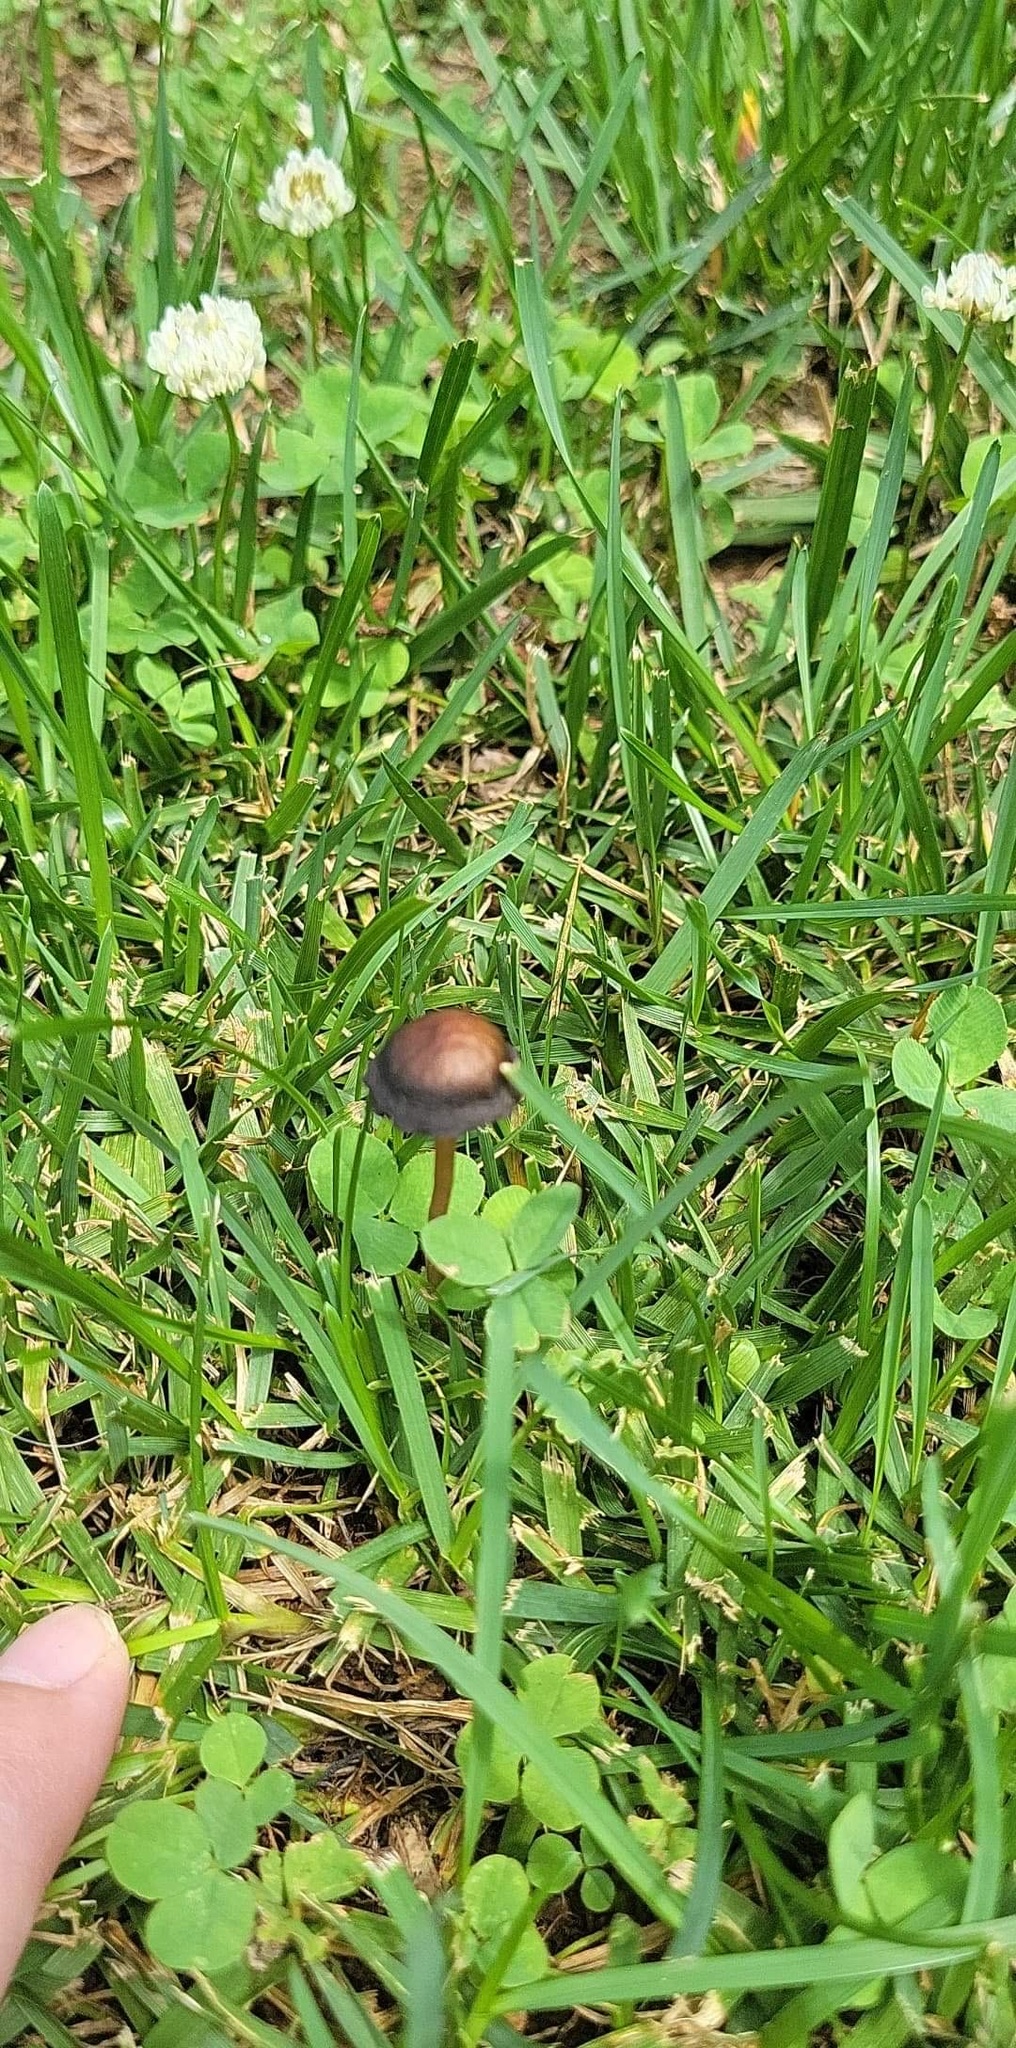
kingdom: Fungi
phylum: Basidiomycota
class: Agaricomycetes
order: Agaricales
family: Bolbitiaceae
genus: Panaeolus
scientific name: Panaeolus cinctulus
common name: Banded mottlegill
